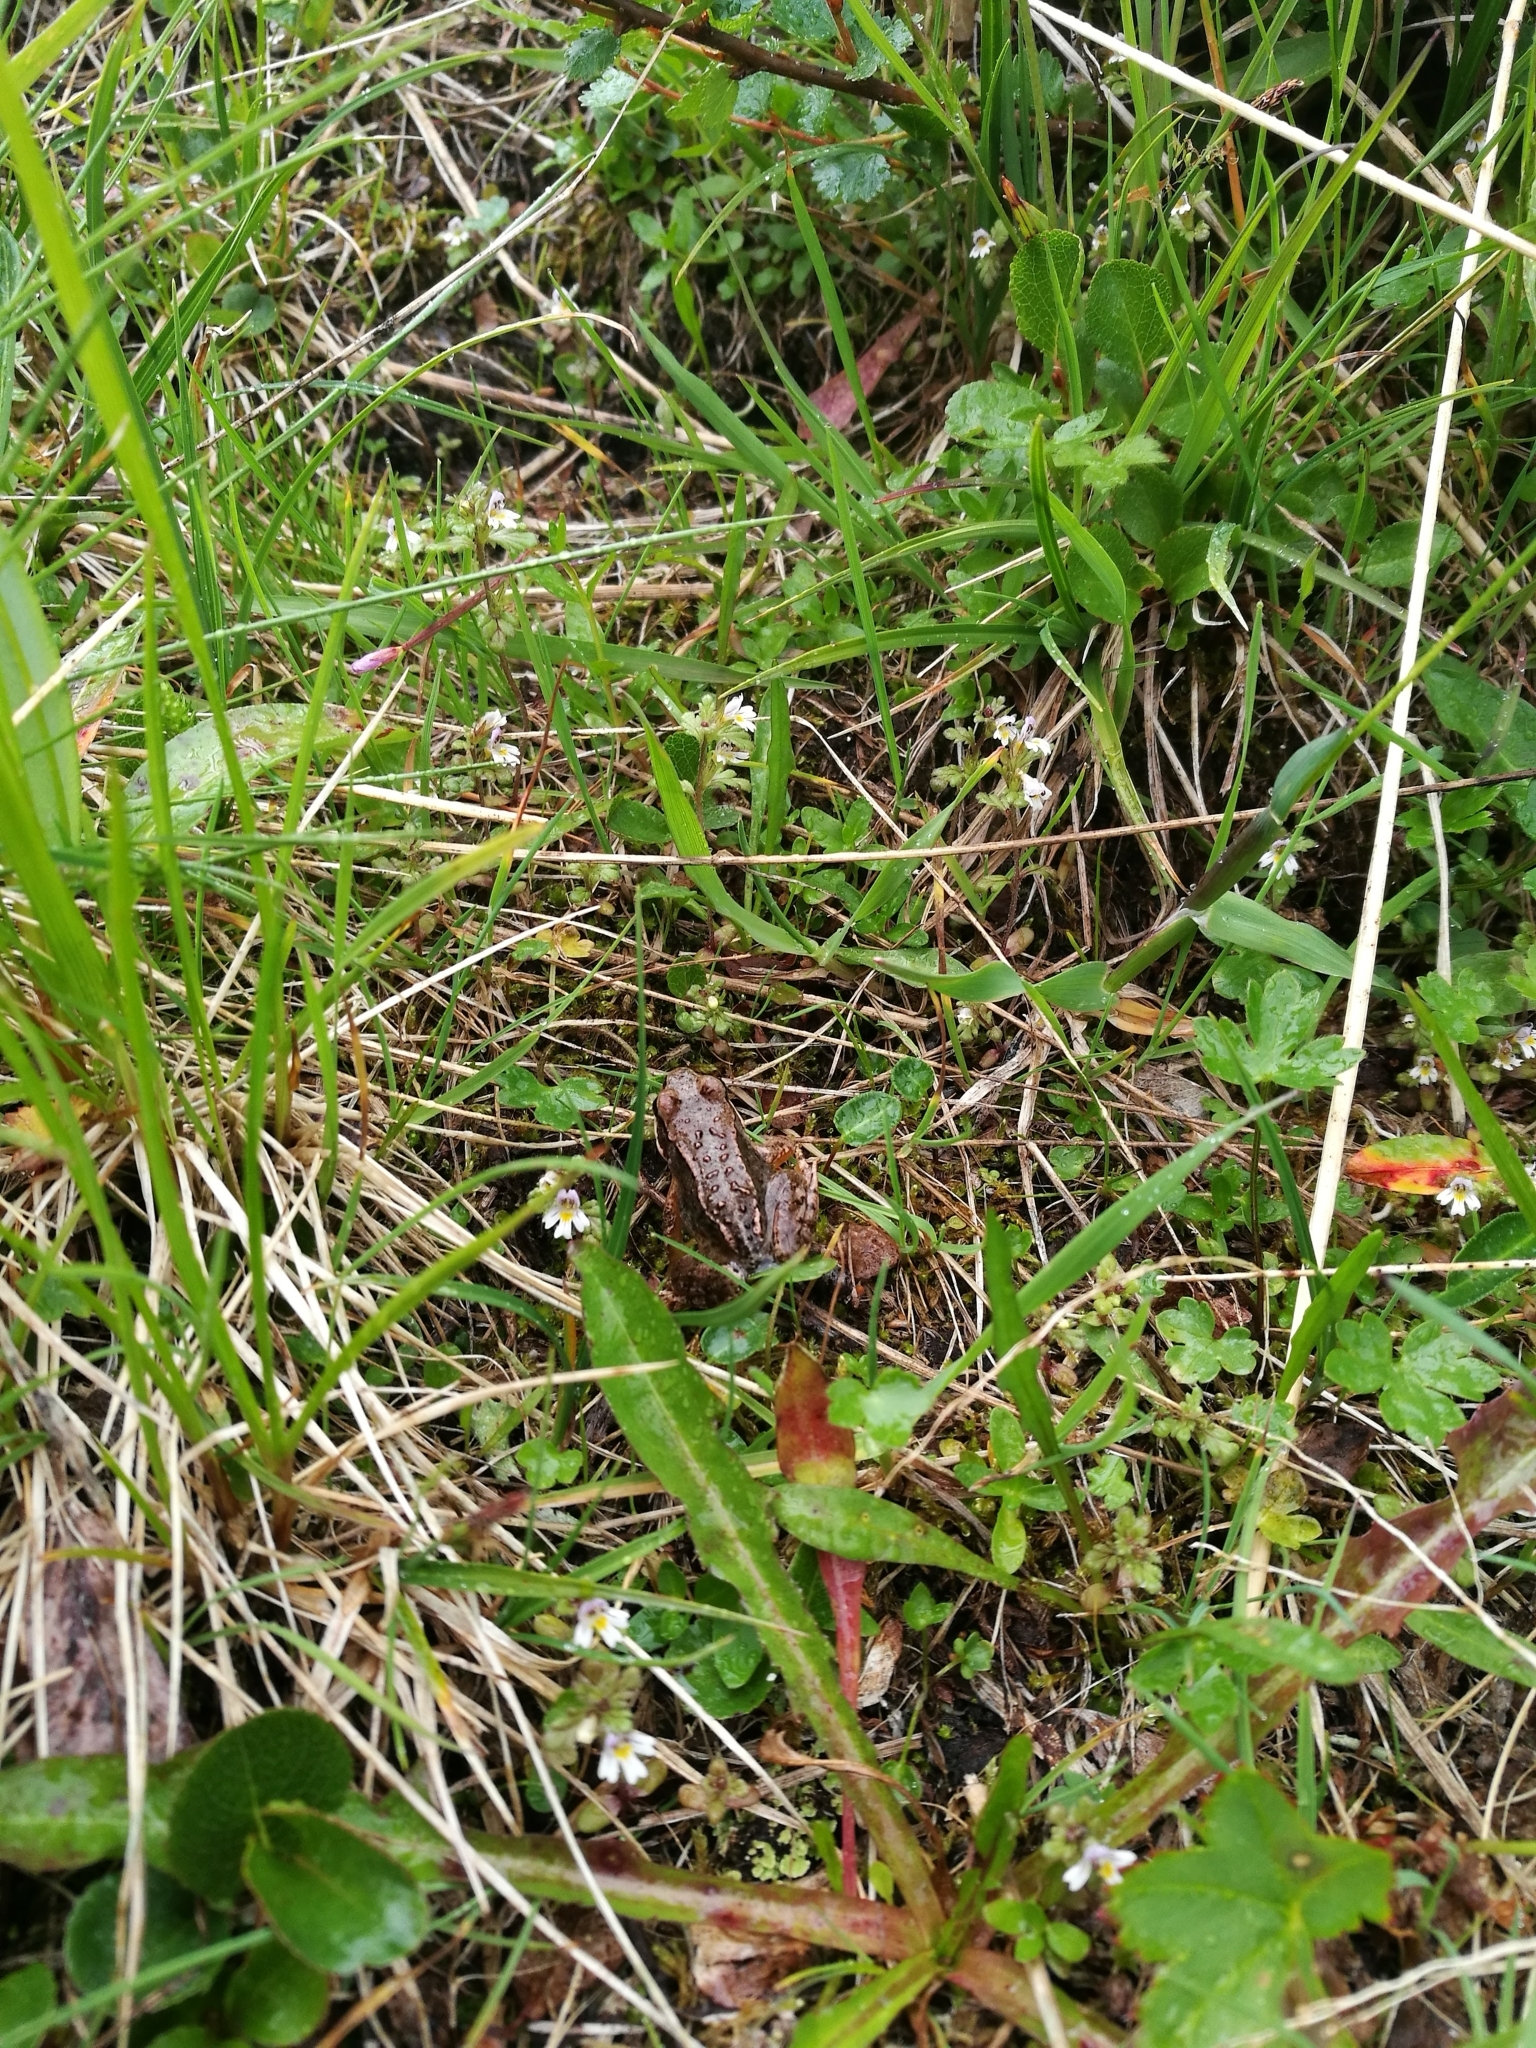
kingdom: Animalia
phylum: Chordata
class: Amphibia
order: Anura
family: Ranidae
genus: Rana
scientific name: Rana temporaria
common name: Common frog
